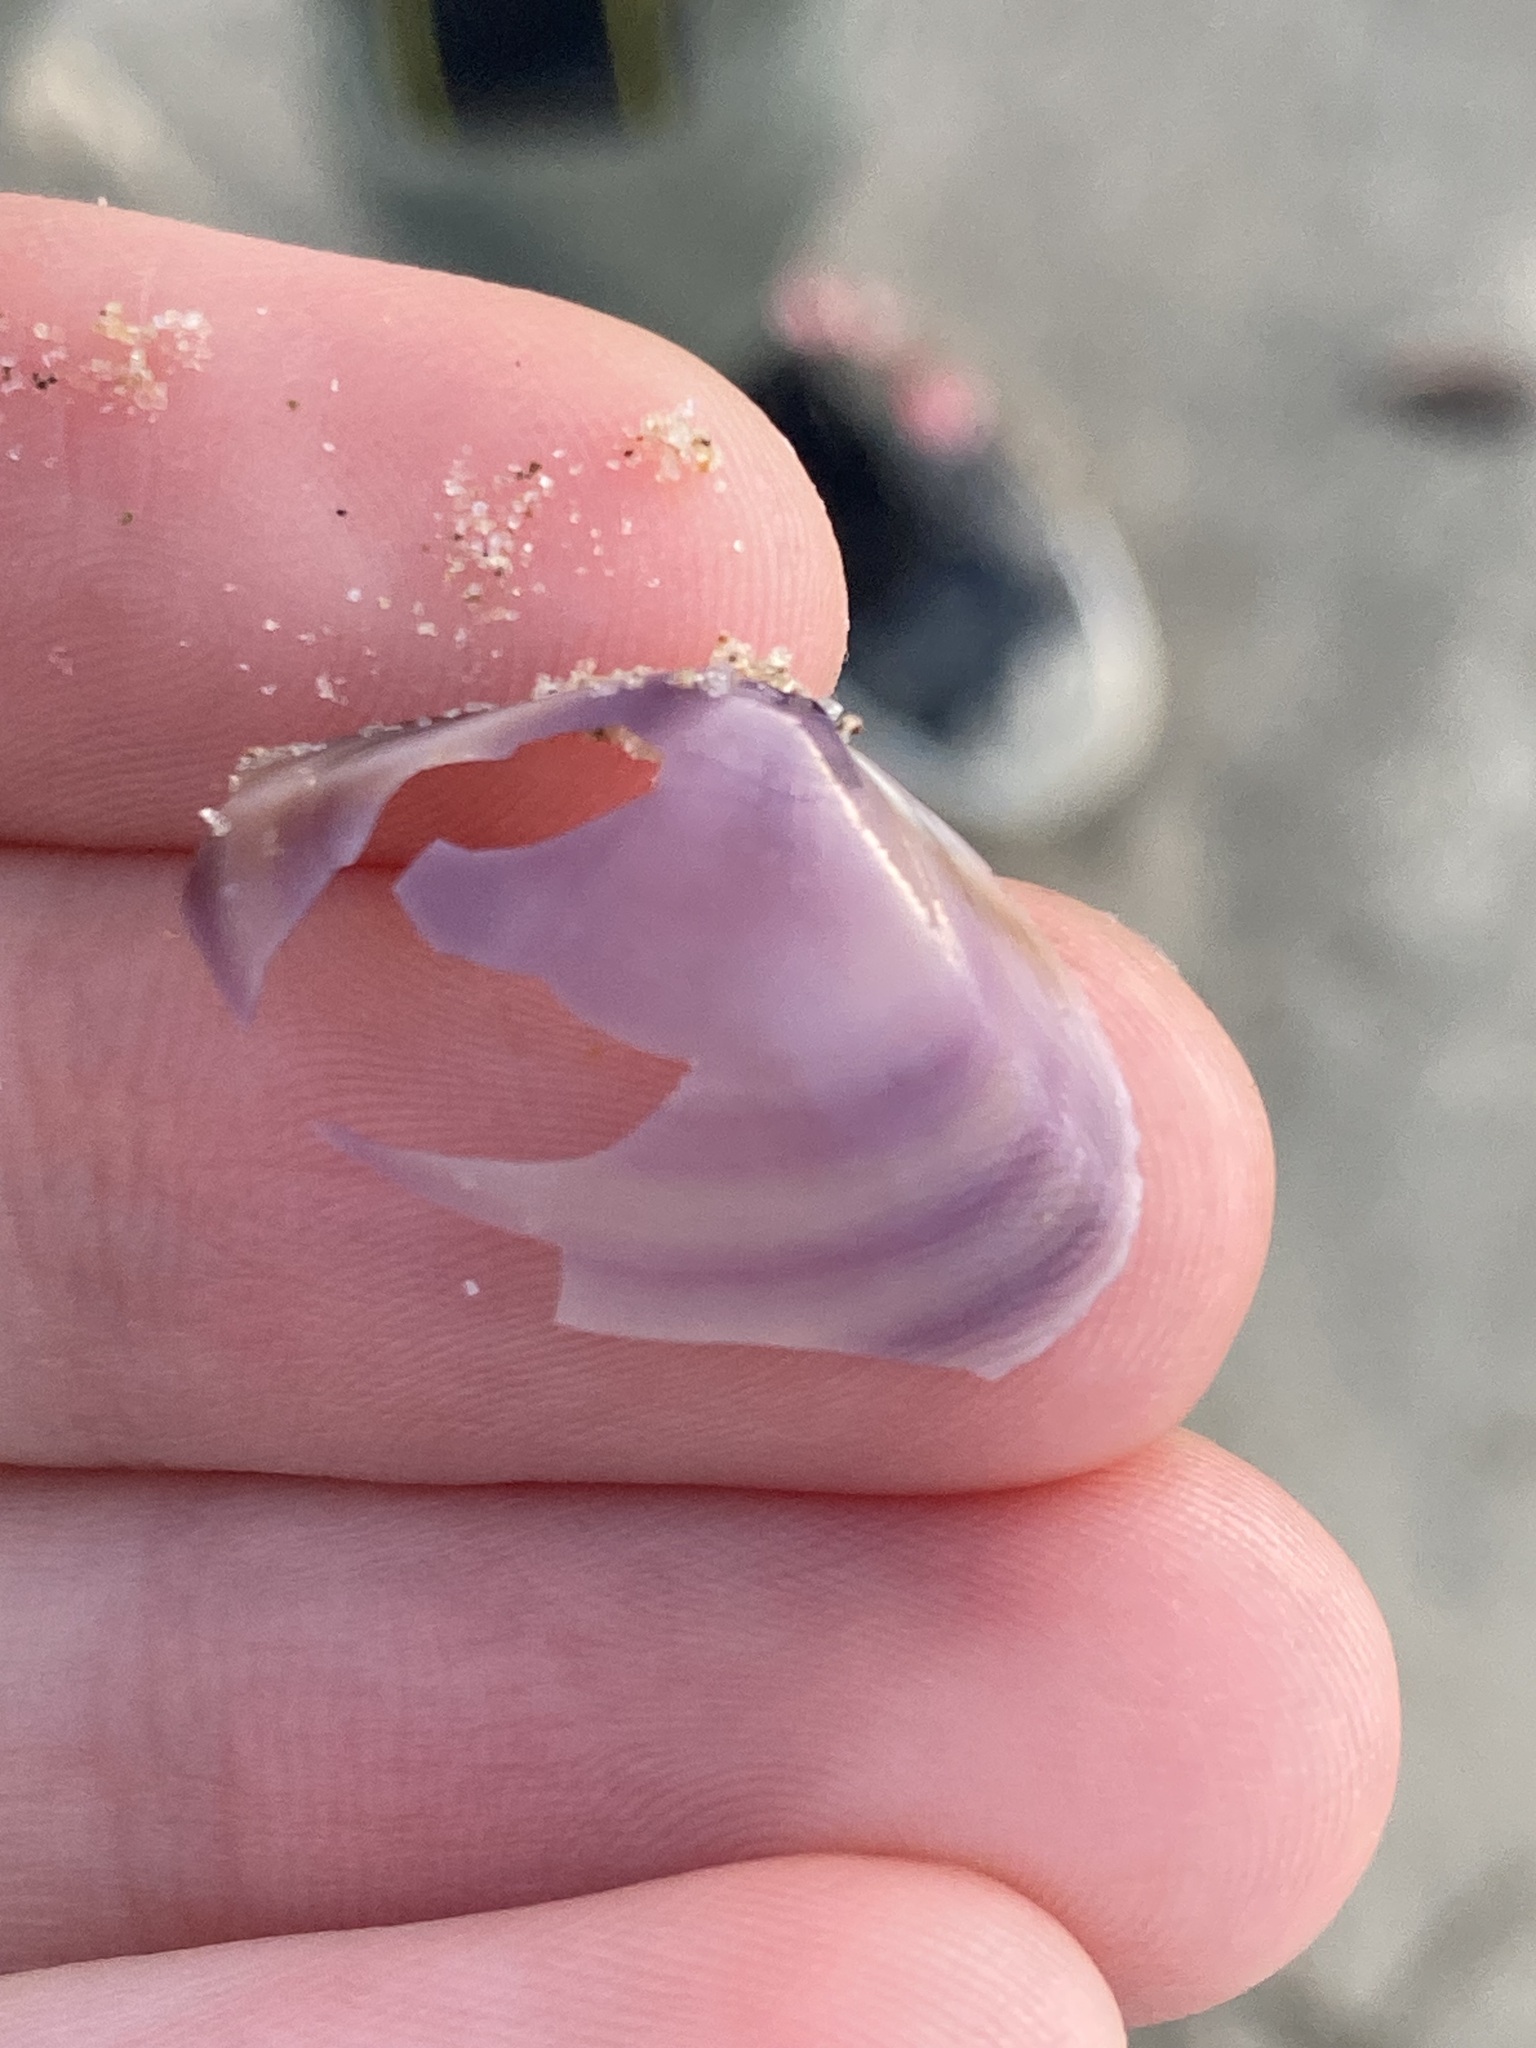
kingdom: Animalia
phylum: Mollusca
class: Bivalvia
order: Venerida
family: Mactridae
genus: Austromactra
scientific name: Austromactra contraria
